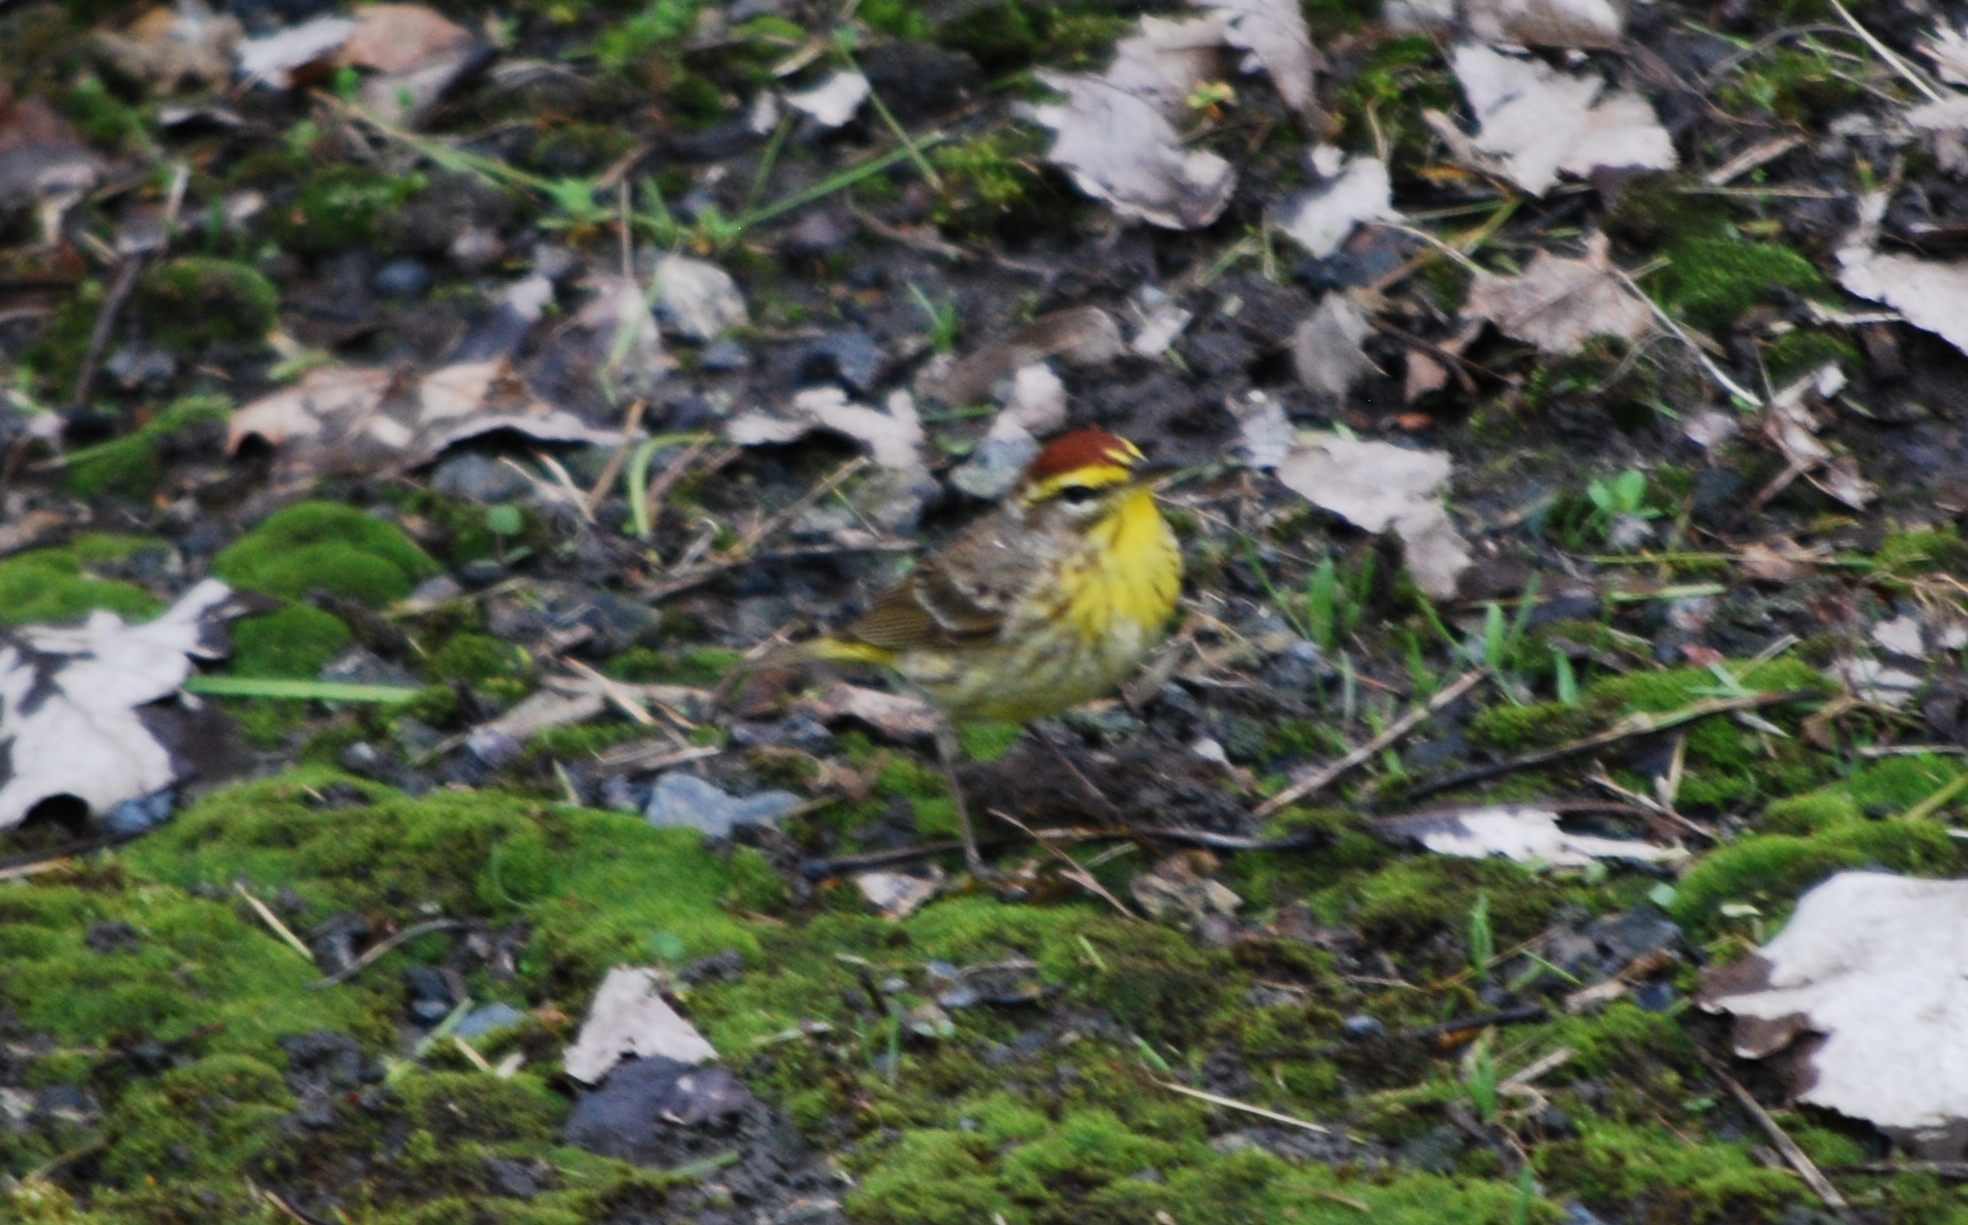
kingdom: Animalia
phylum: Chordata
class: Aves
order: Passeriformes
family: Parulidae
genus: Setophaga
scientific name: Setophaga palmarum
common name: Palm warbler
